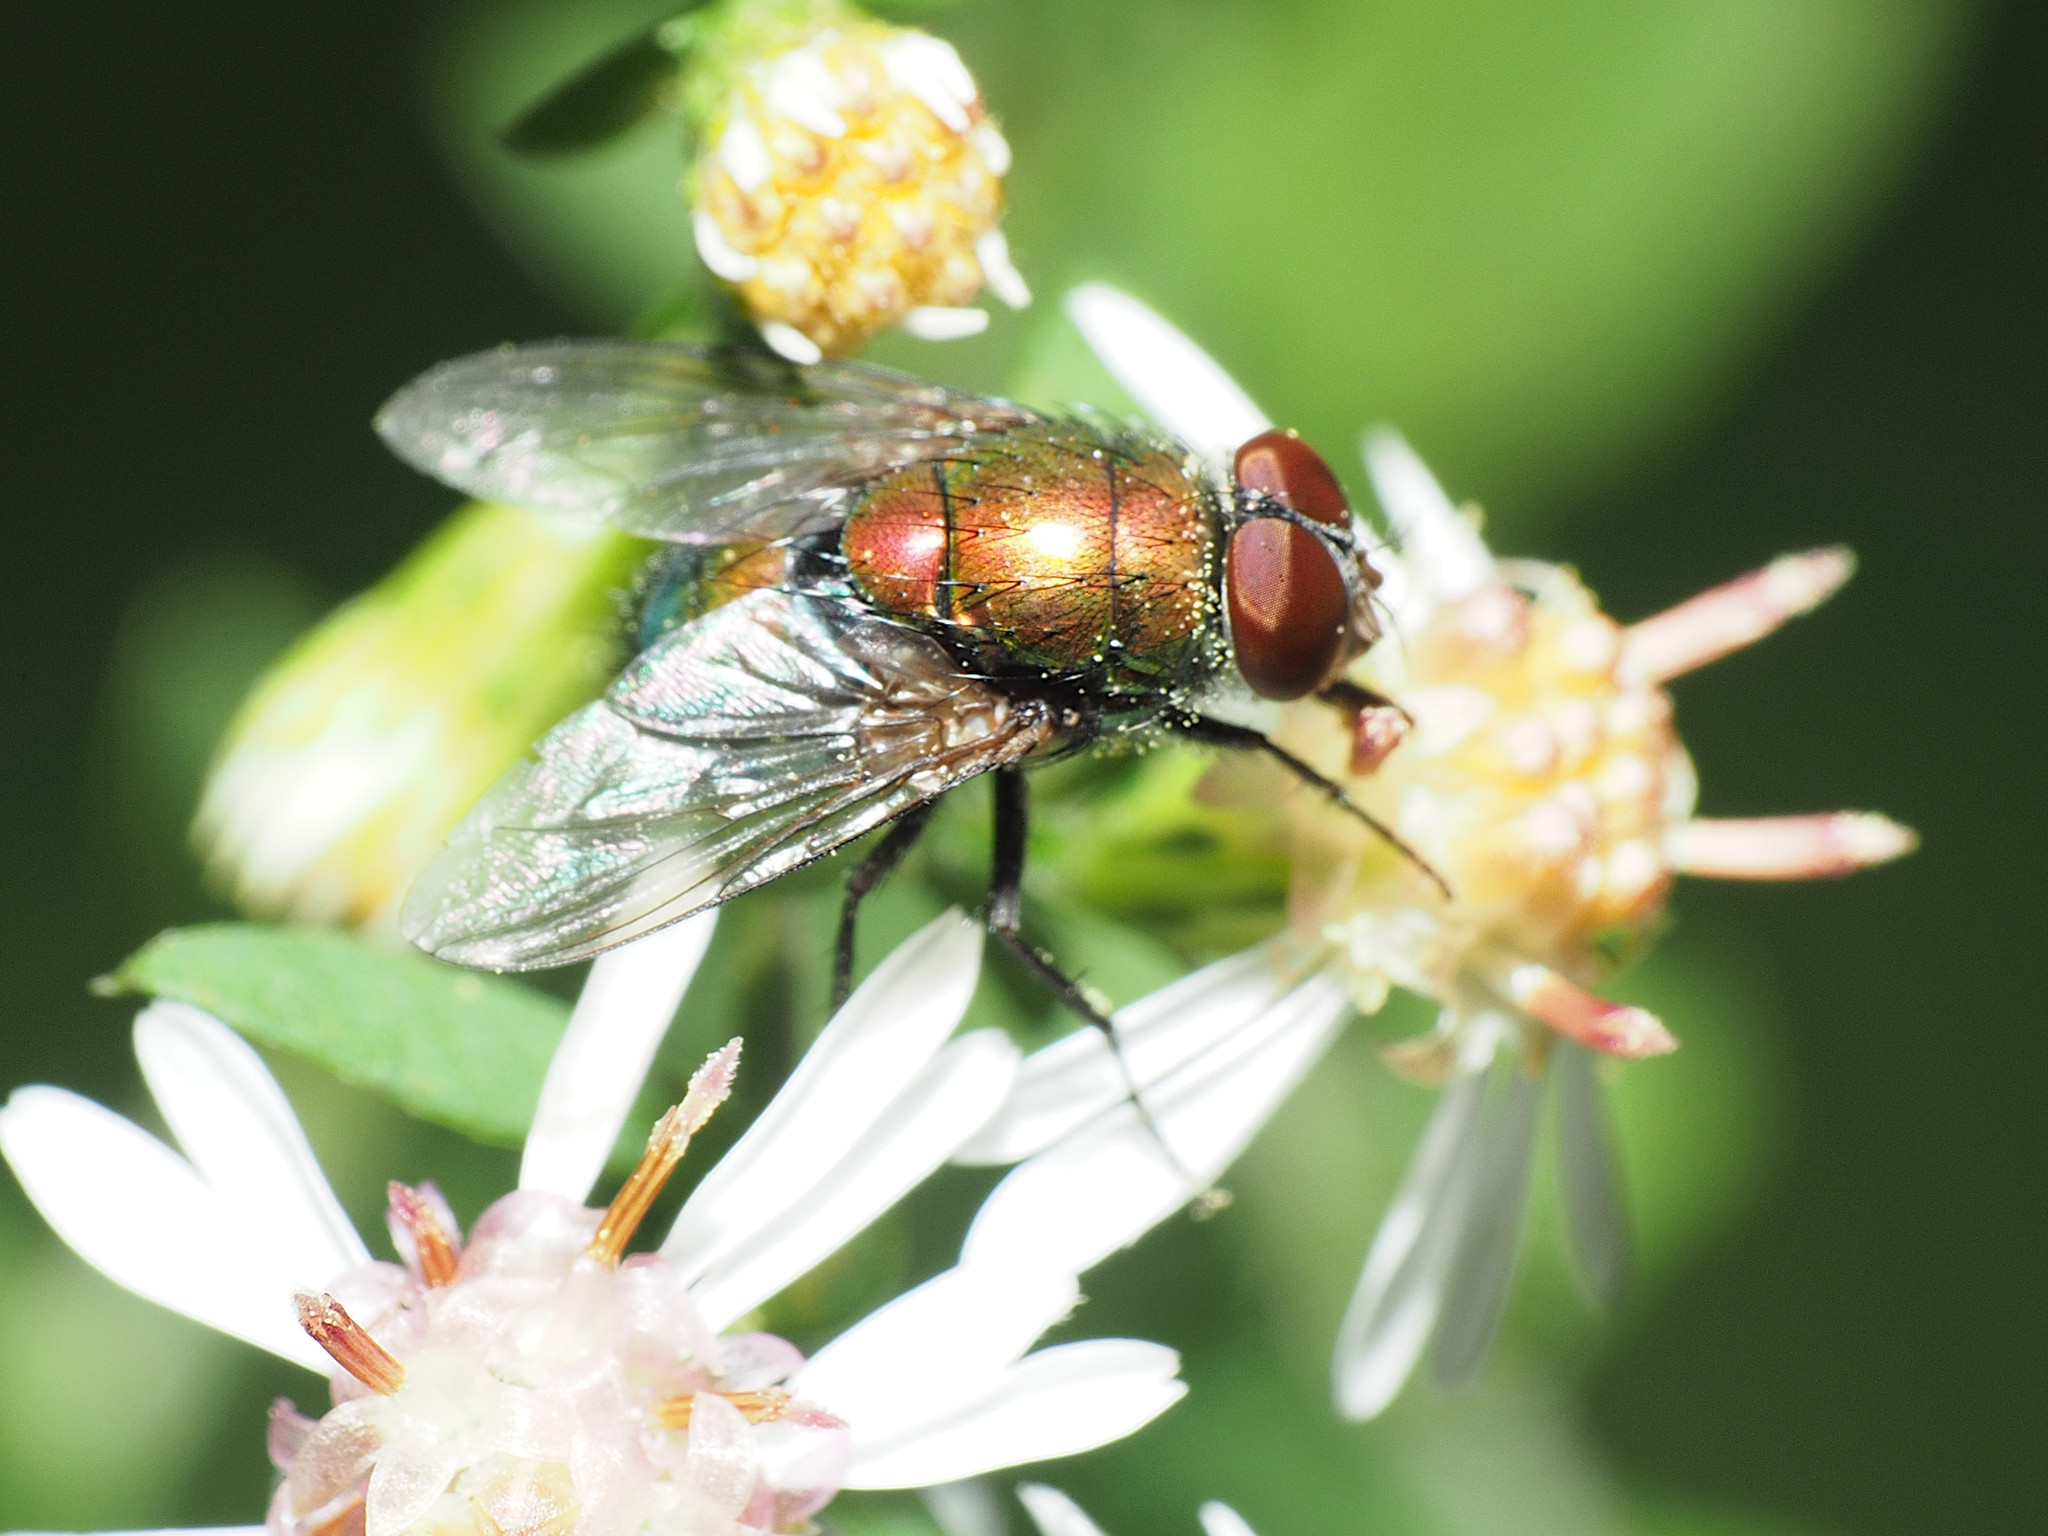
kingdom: Animalia
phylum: Arthropoda
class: Insecta
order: Diptera
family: Calliphoridae
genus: Lucilia
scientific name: Lucilia caeruleiviridis
